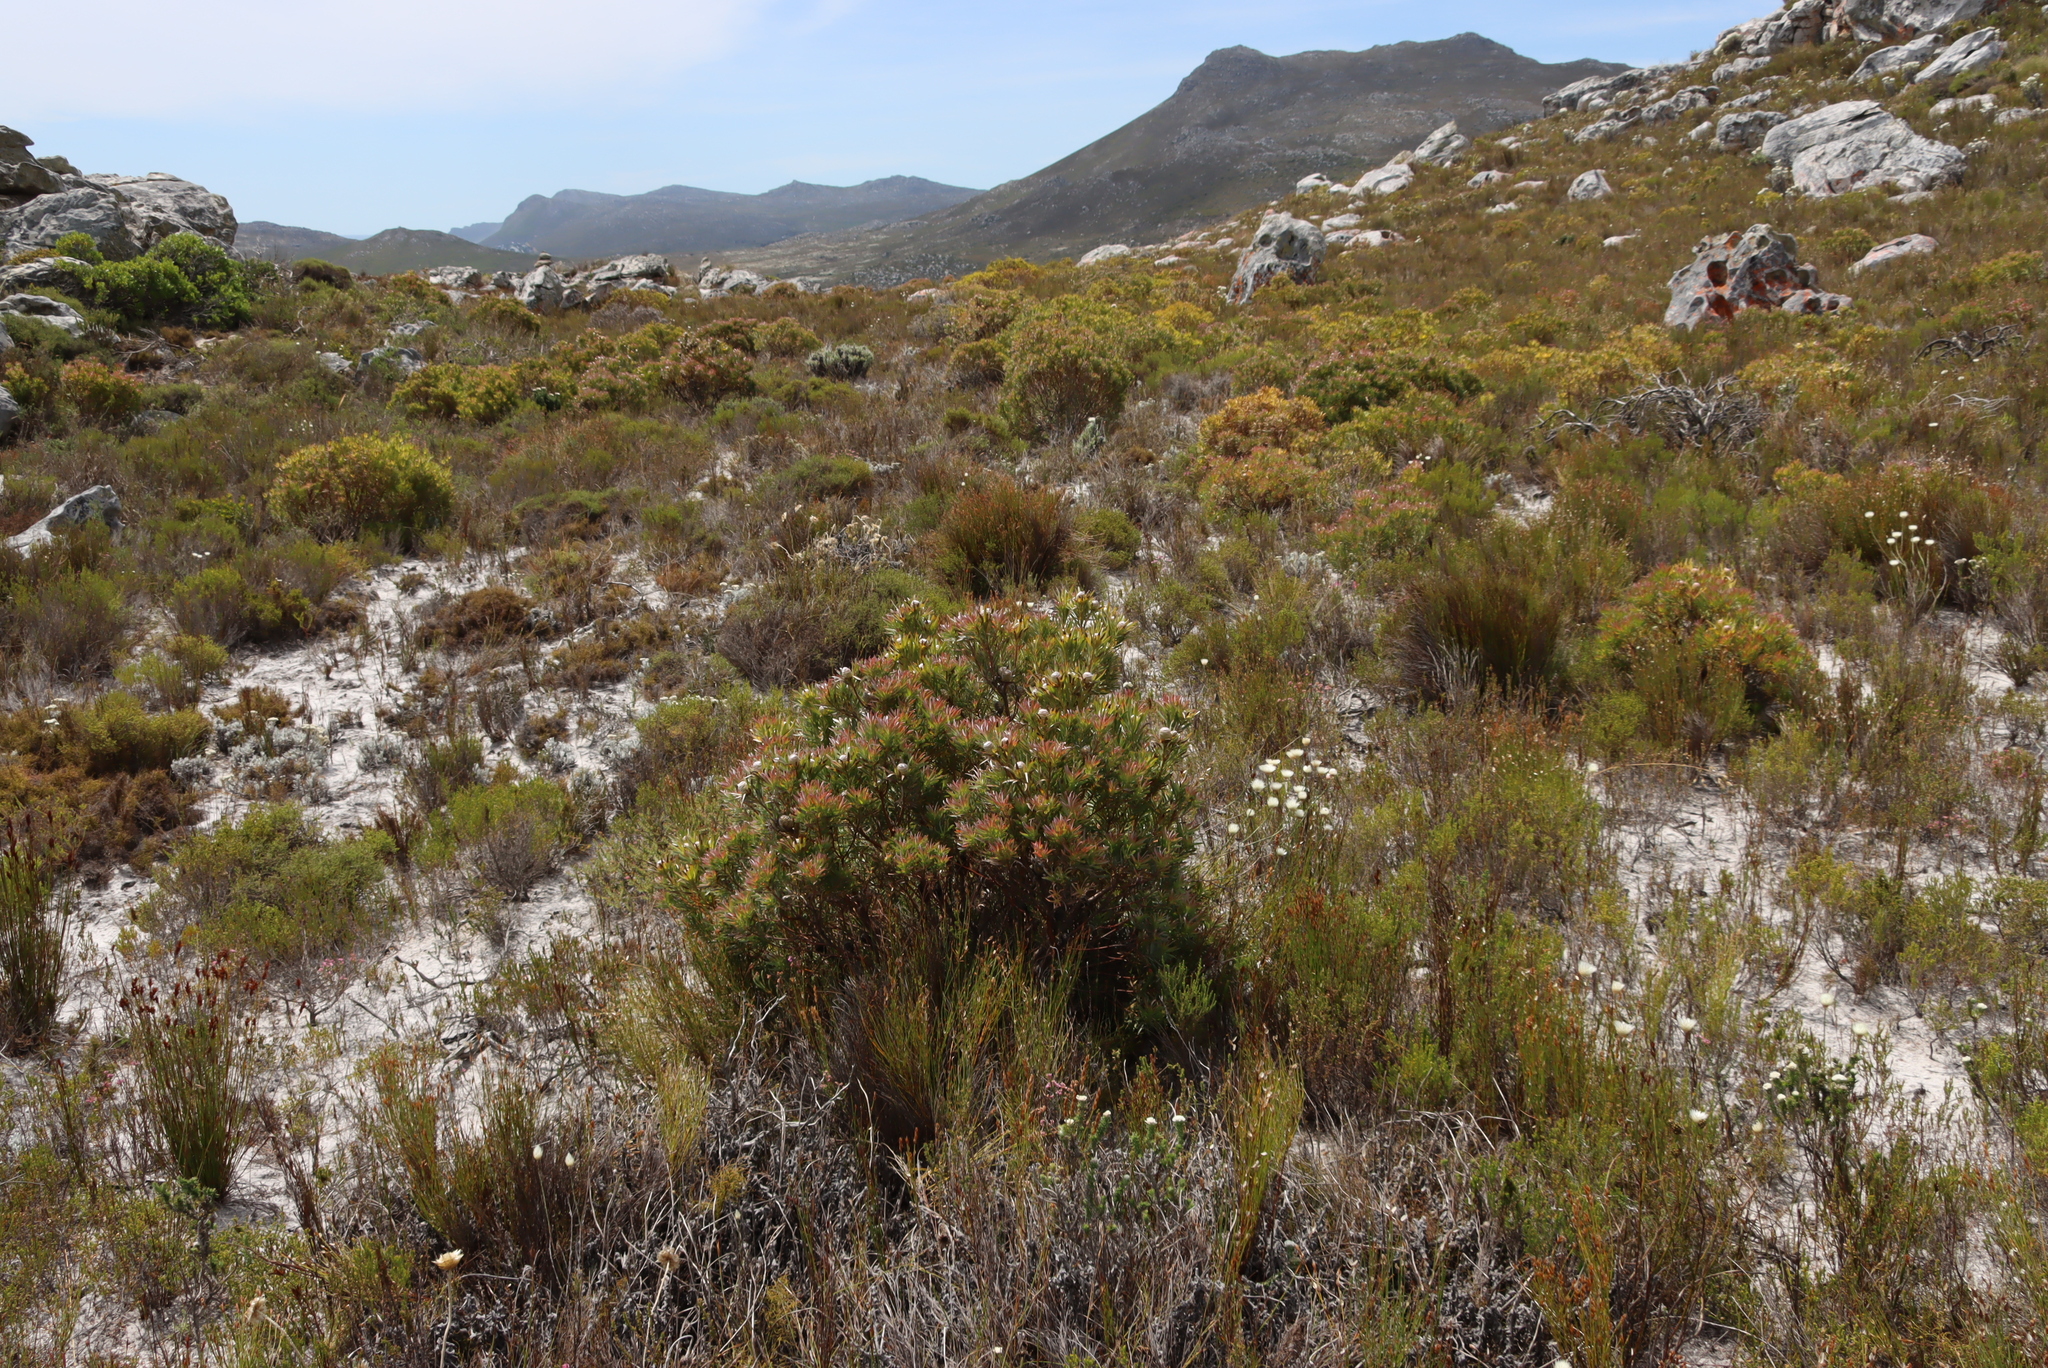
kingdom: Plantae
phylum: Tracheophyta
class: Magnoliopsida
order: Proteales
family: Proteaceae
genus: Leucadendron
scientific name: Leucadendron xanthoconus
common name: Sickle-leaf conebush
